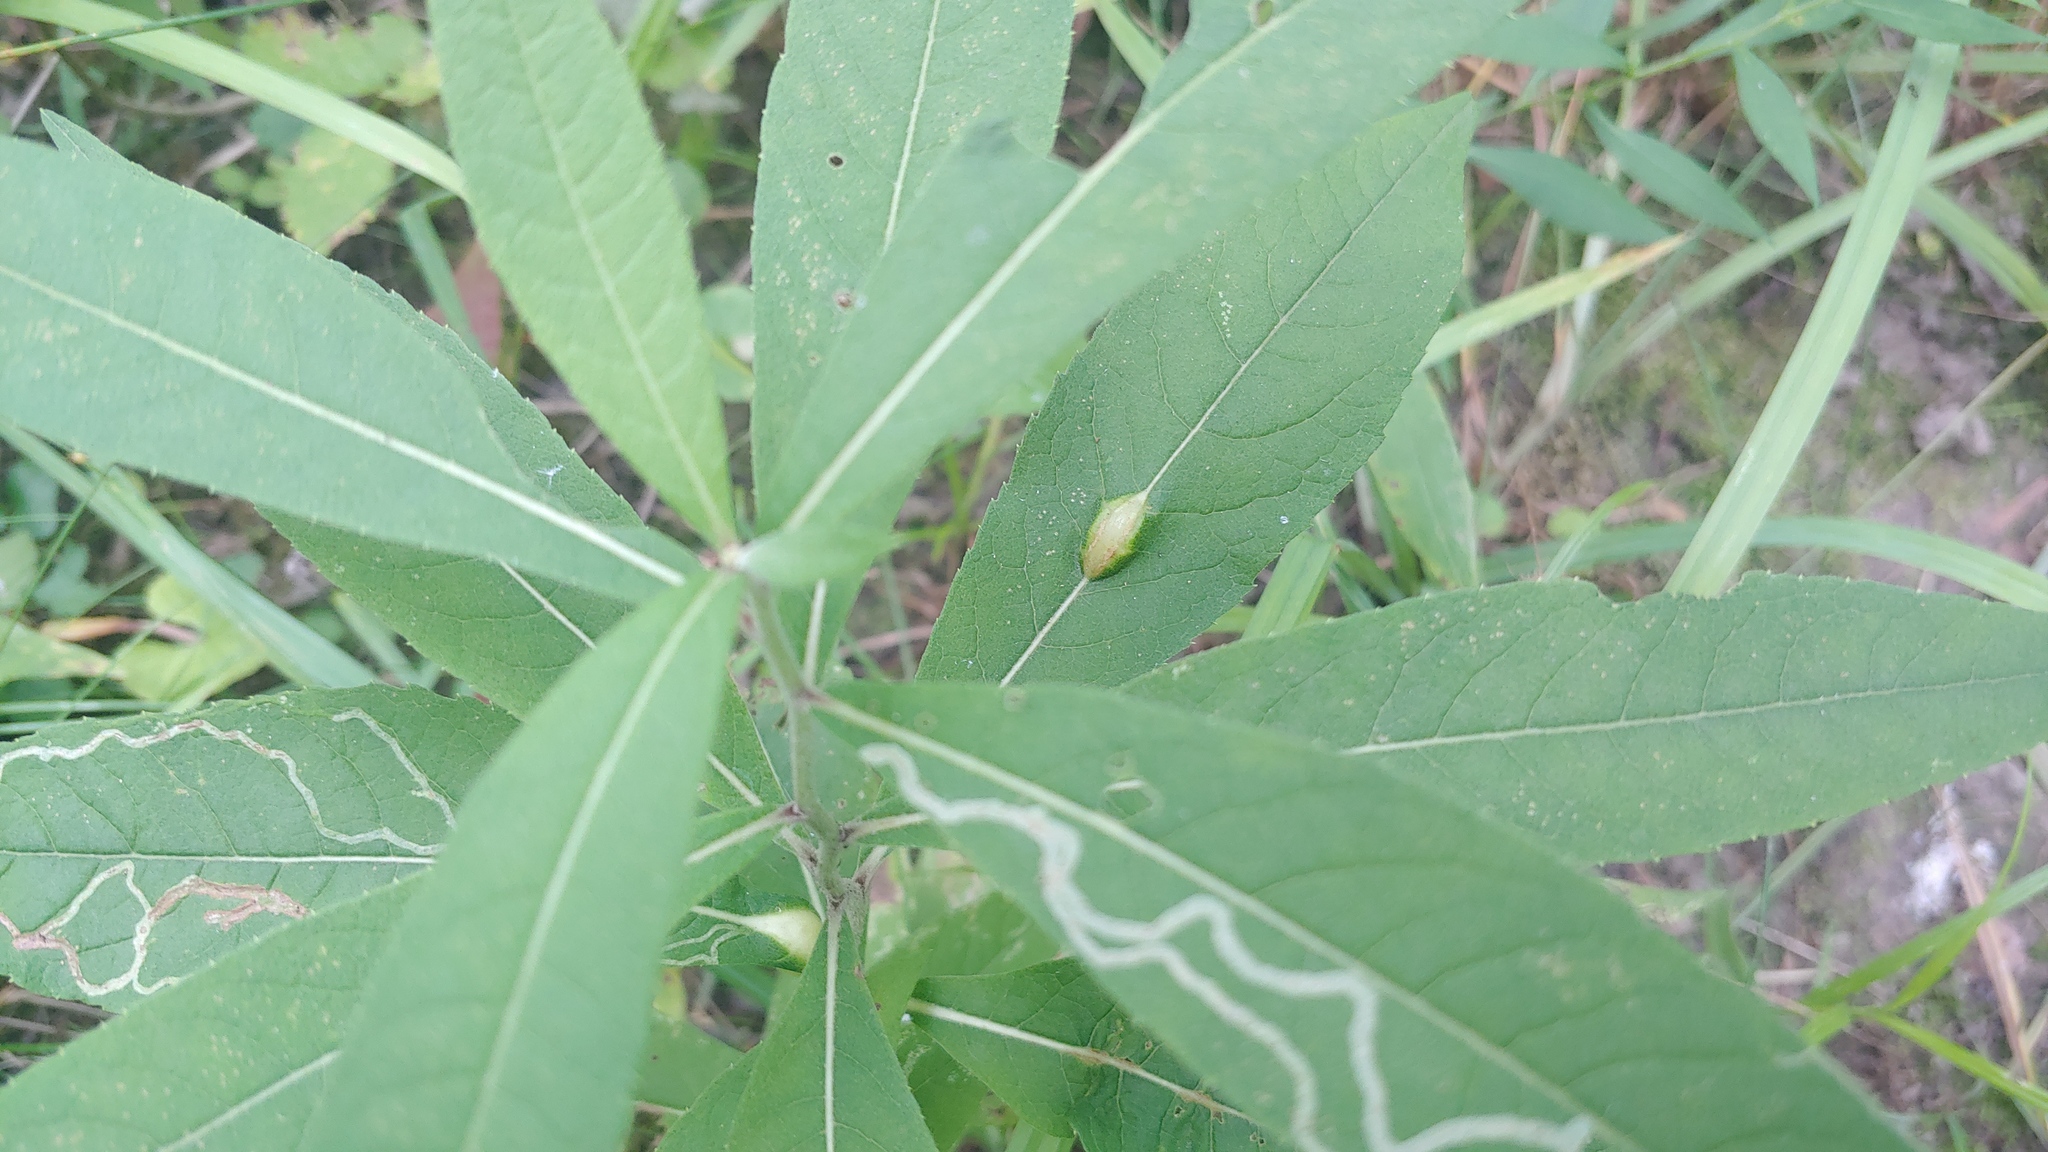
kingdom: Animalia
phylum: Arthropoda
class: Insecta
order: Diptera
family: Cecidomyiidae
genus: Neolasioptera
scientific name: Neolasioptera vernoniae
